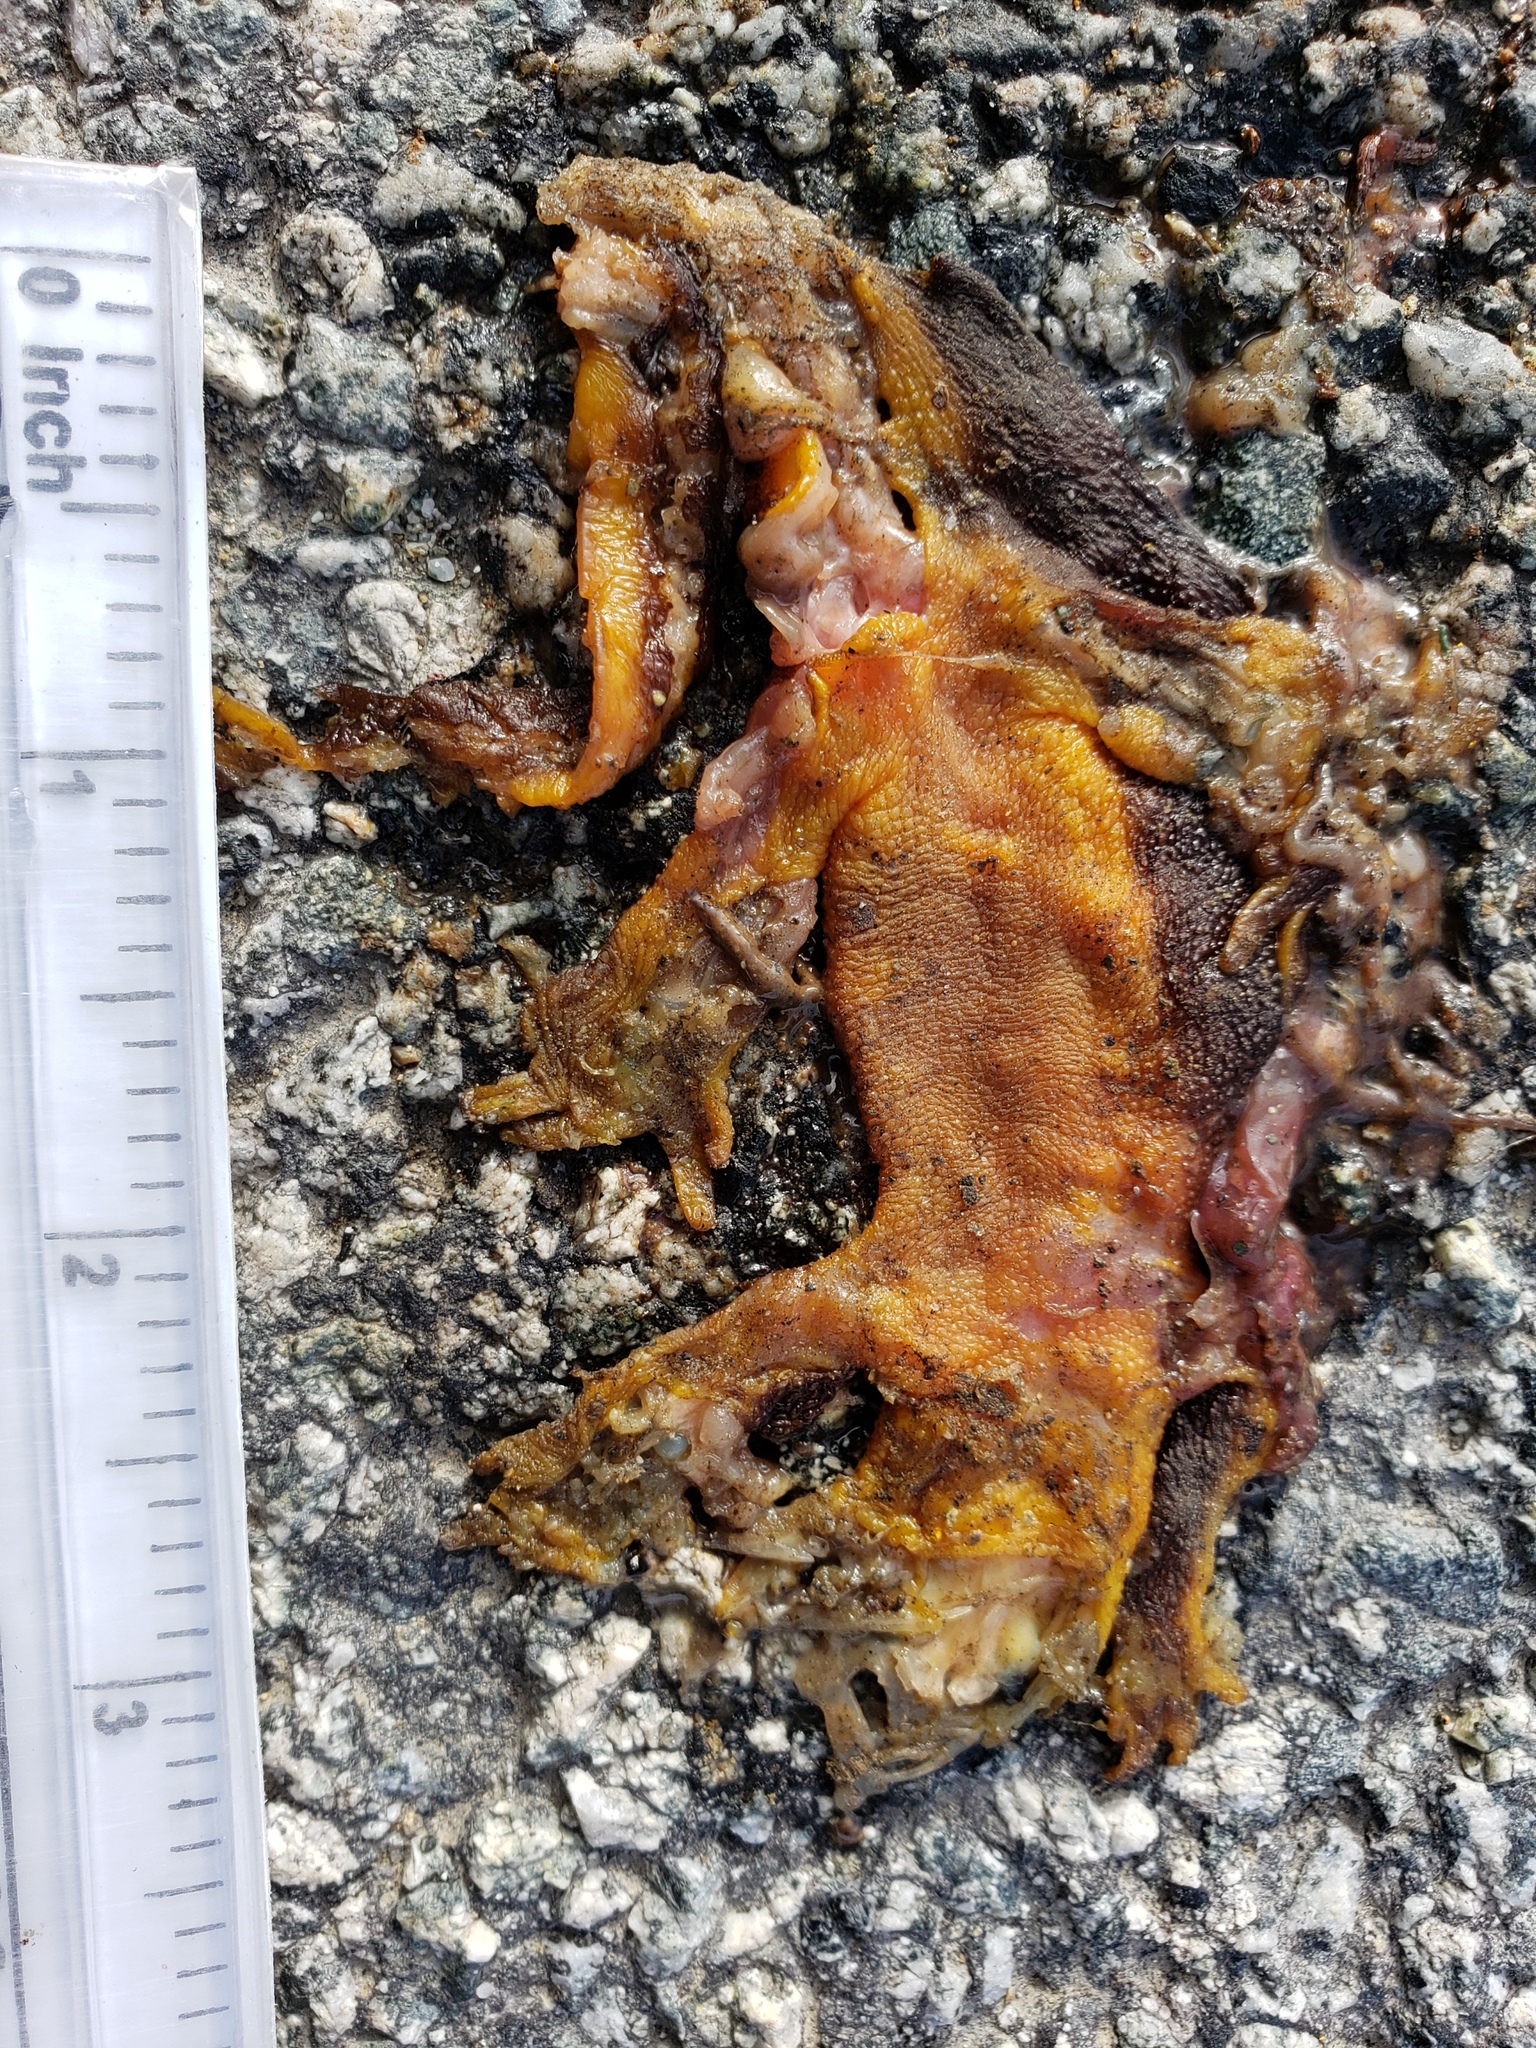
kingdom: Animalia
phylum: Chordata
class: Amphibia
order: Caudata
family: Salamandridae
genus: Taricha
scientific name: Taricha
